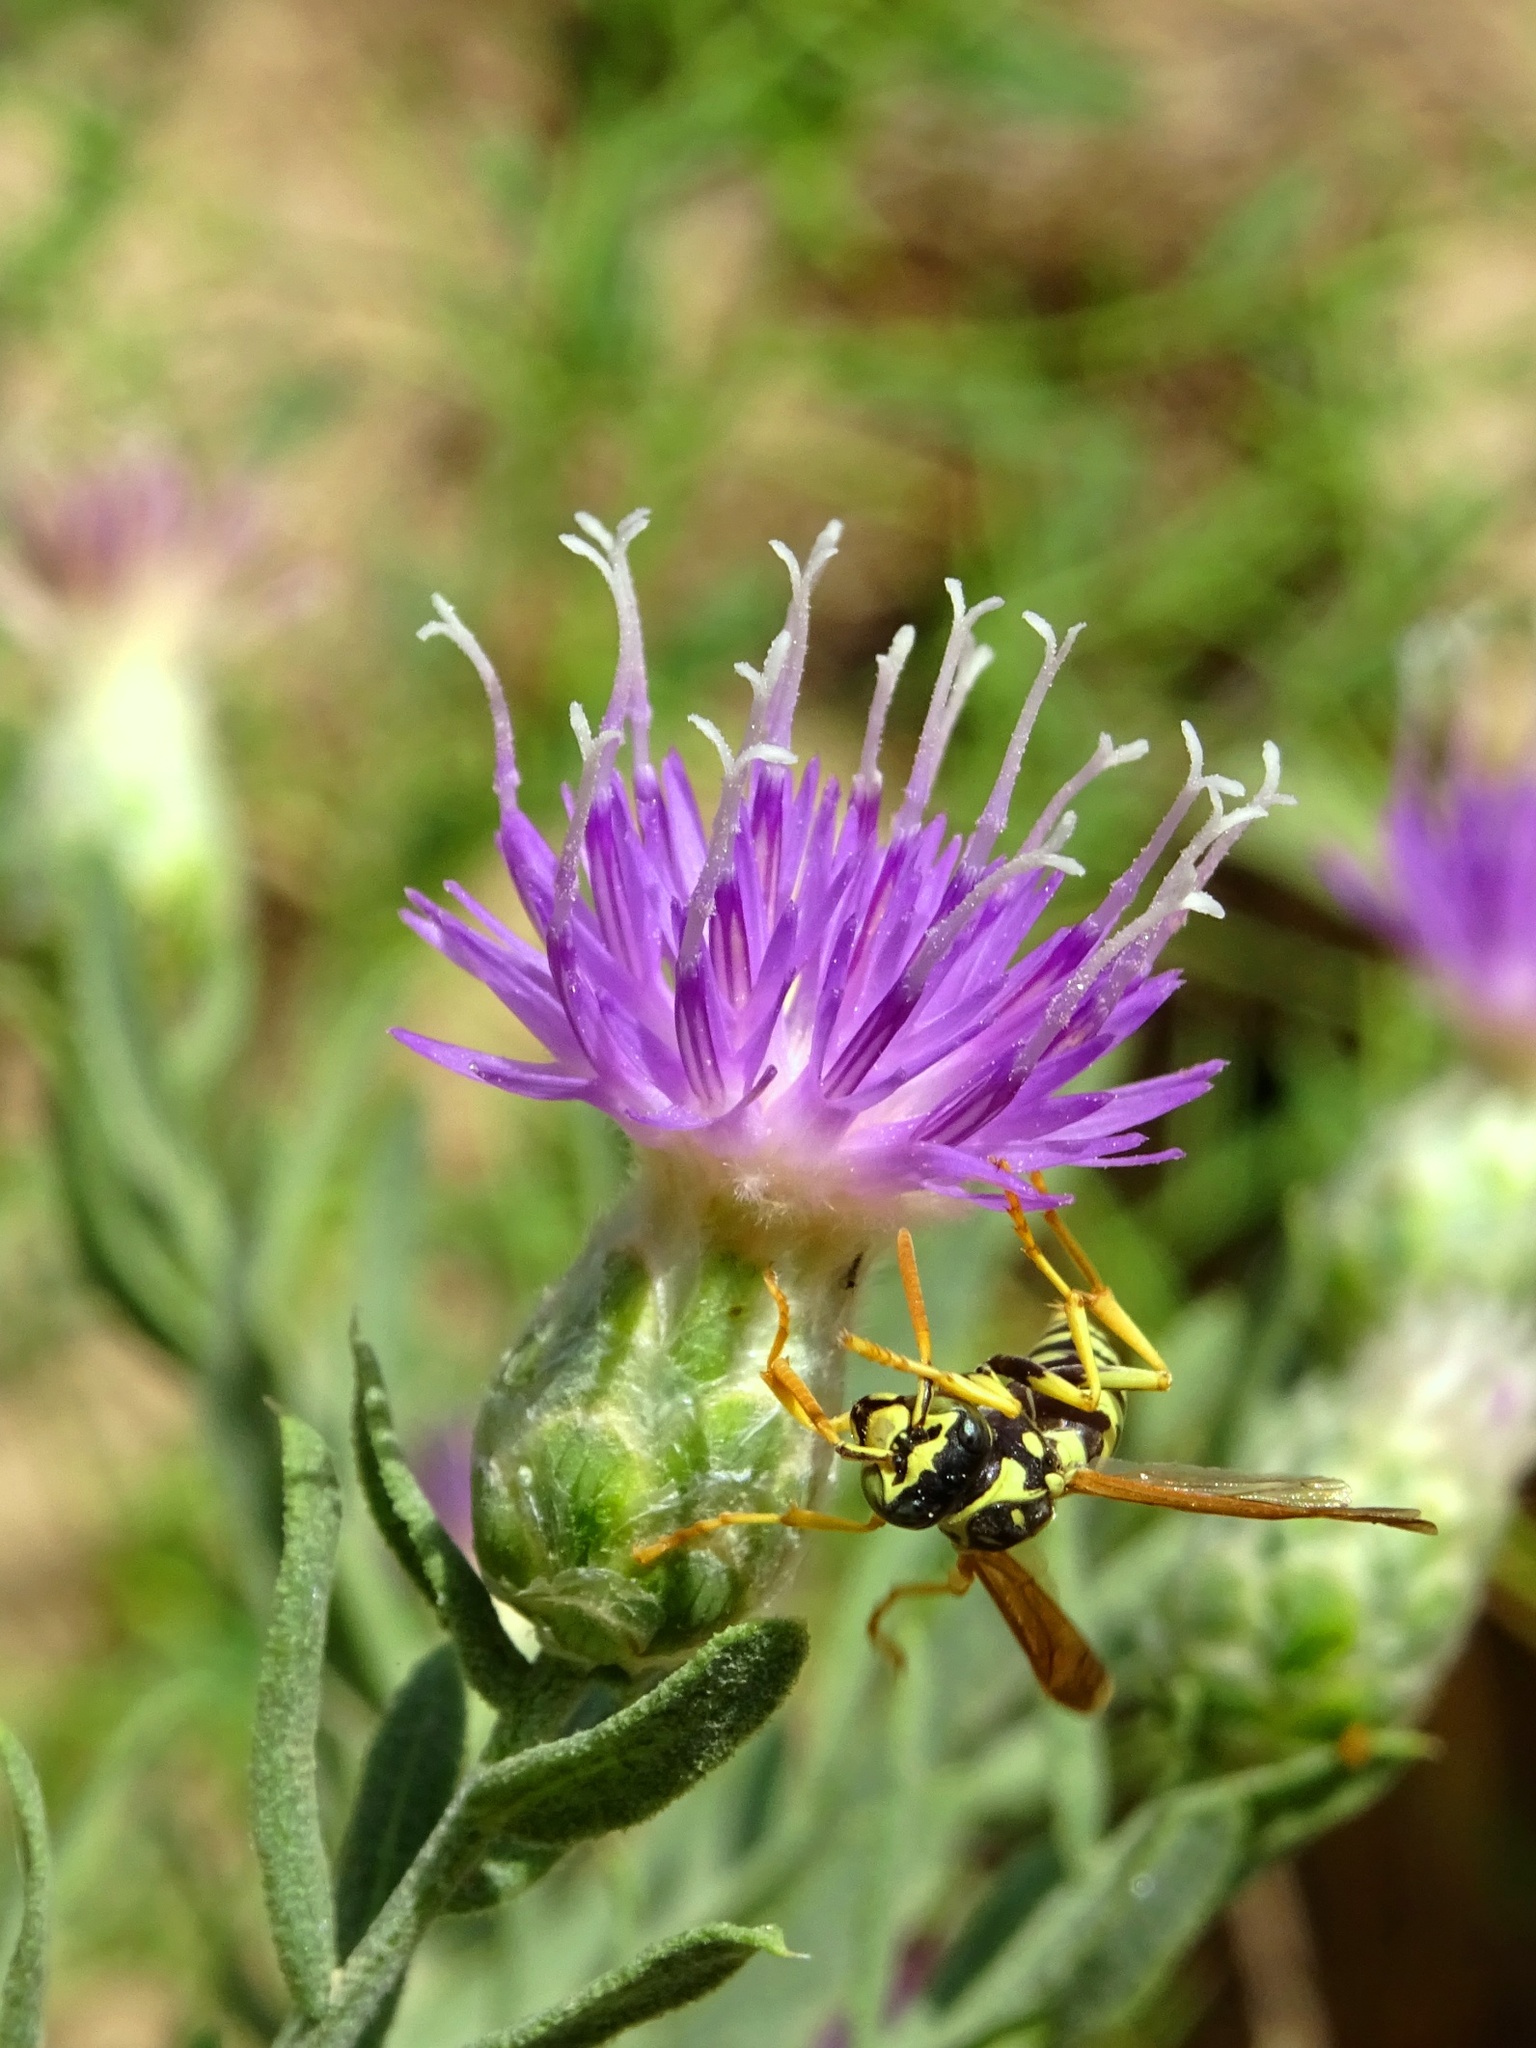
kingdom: Animalia
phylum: Arthropoda
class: Insecta
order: Hymenoptera
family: Eumenidae
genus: Polistes
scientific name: Polistes gallicus
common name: Paper wasp
